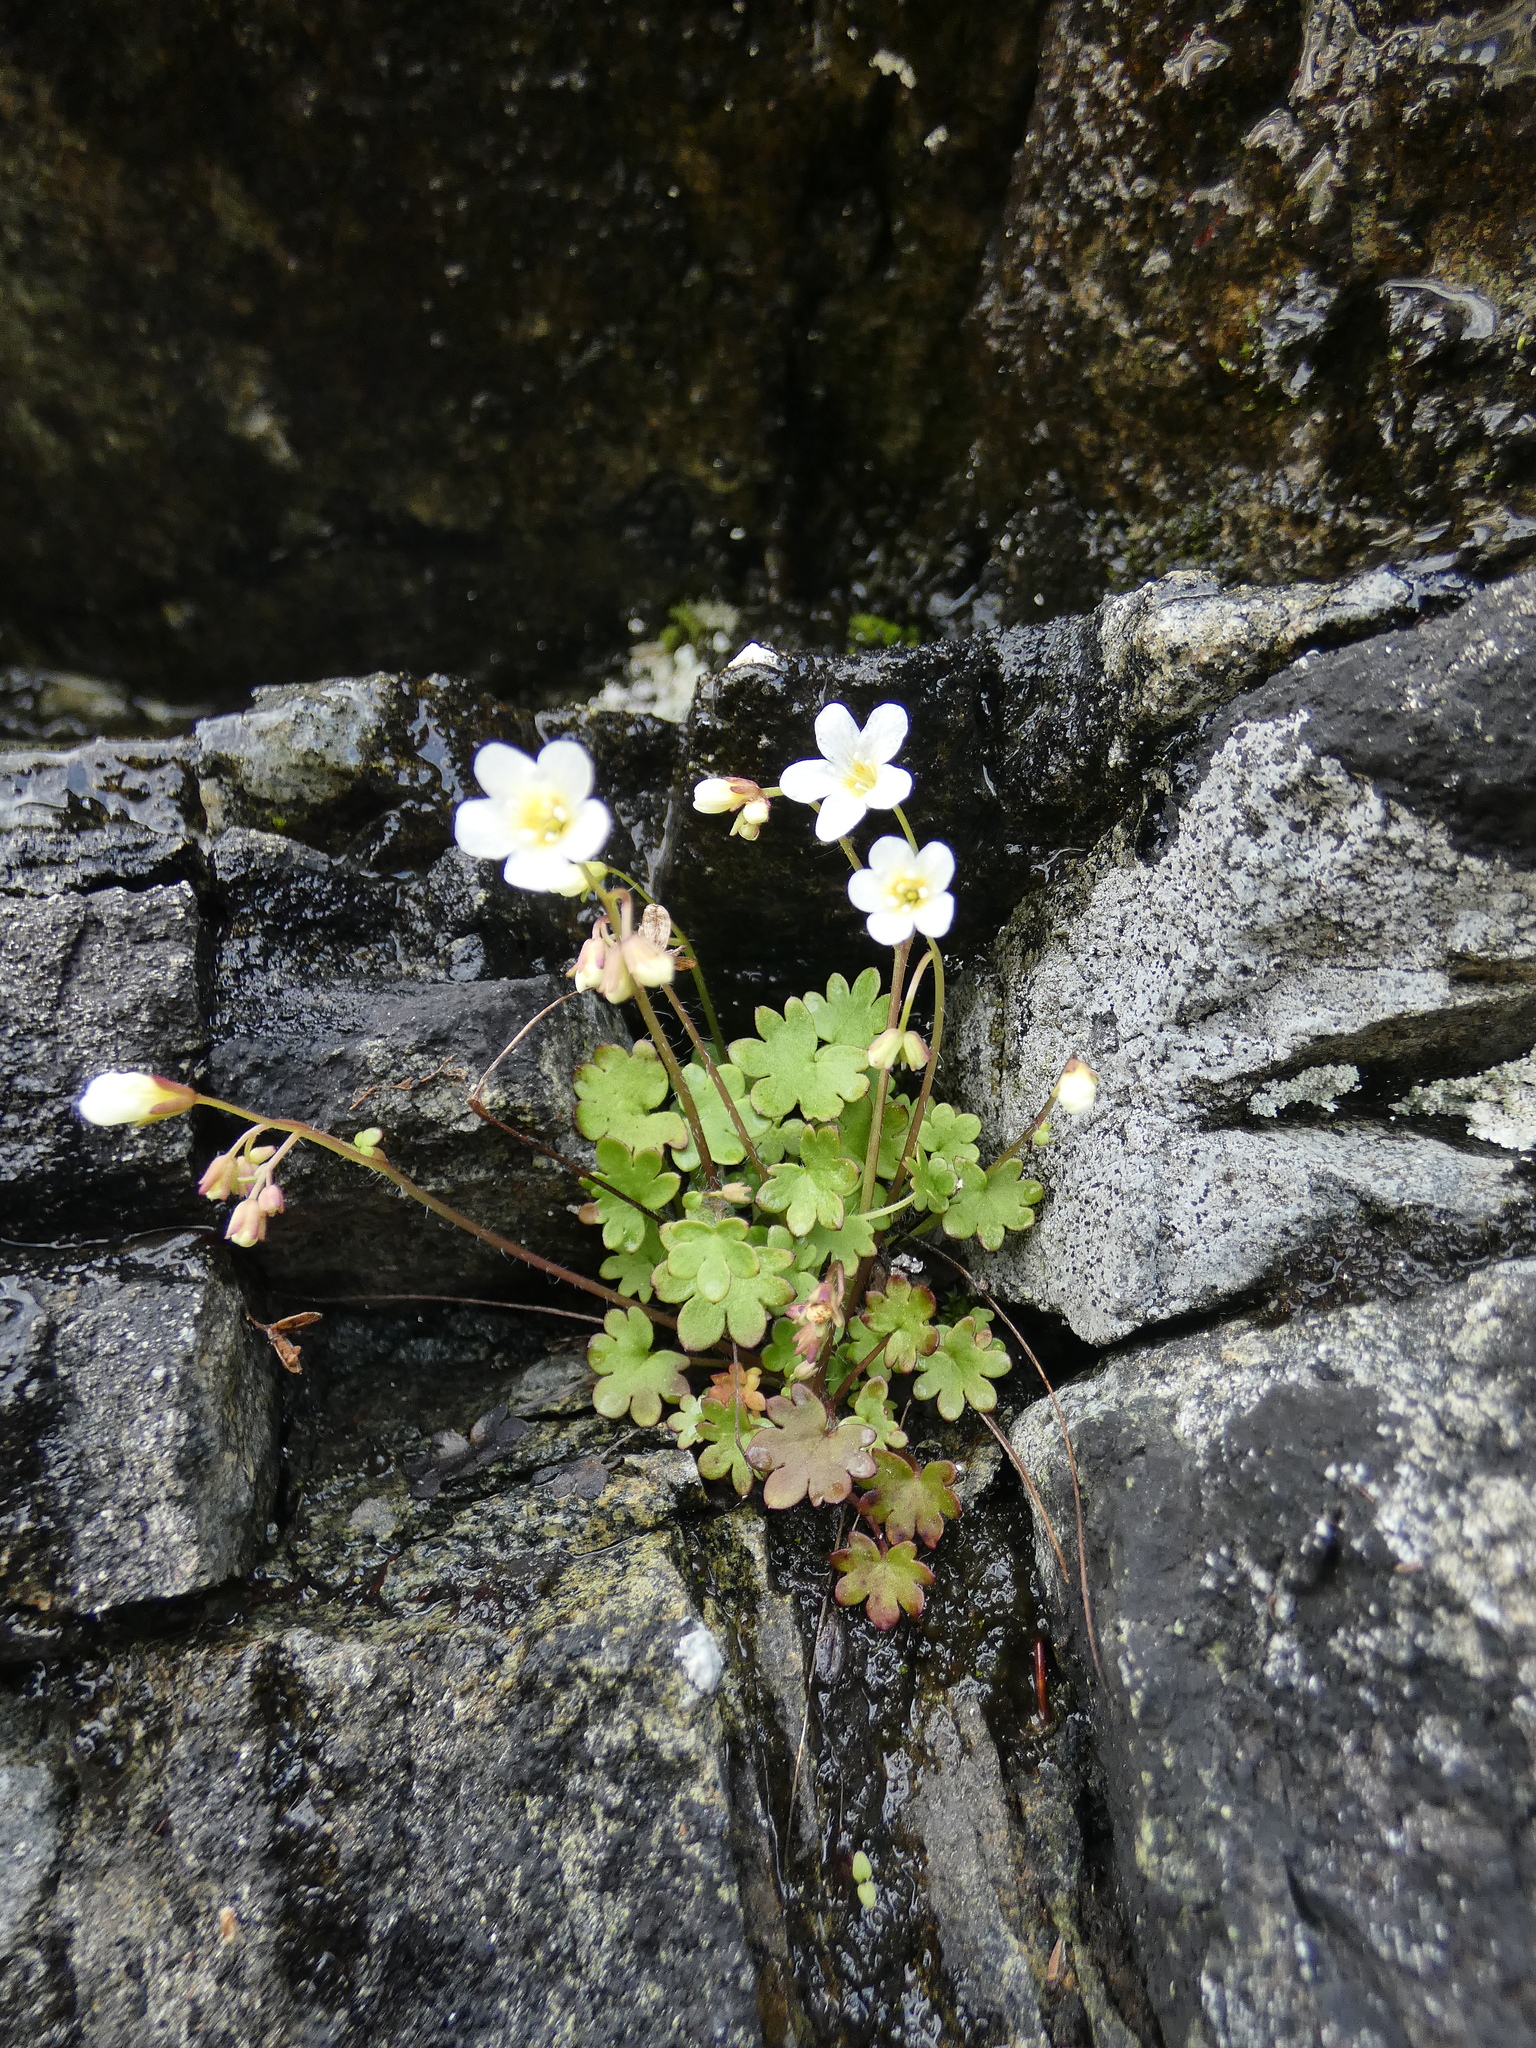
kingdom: Plantae
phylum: Tracheophyta
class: Magnoliopsida
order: Boraginales
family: Hydrophyllaceae
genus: Romanzoffia
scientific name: Romanzoffia sitchensis
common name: Sitka mistmaid
